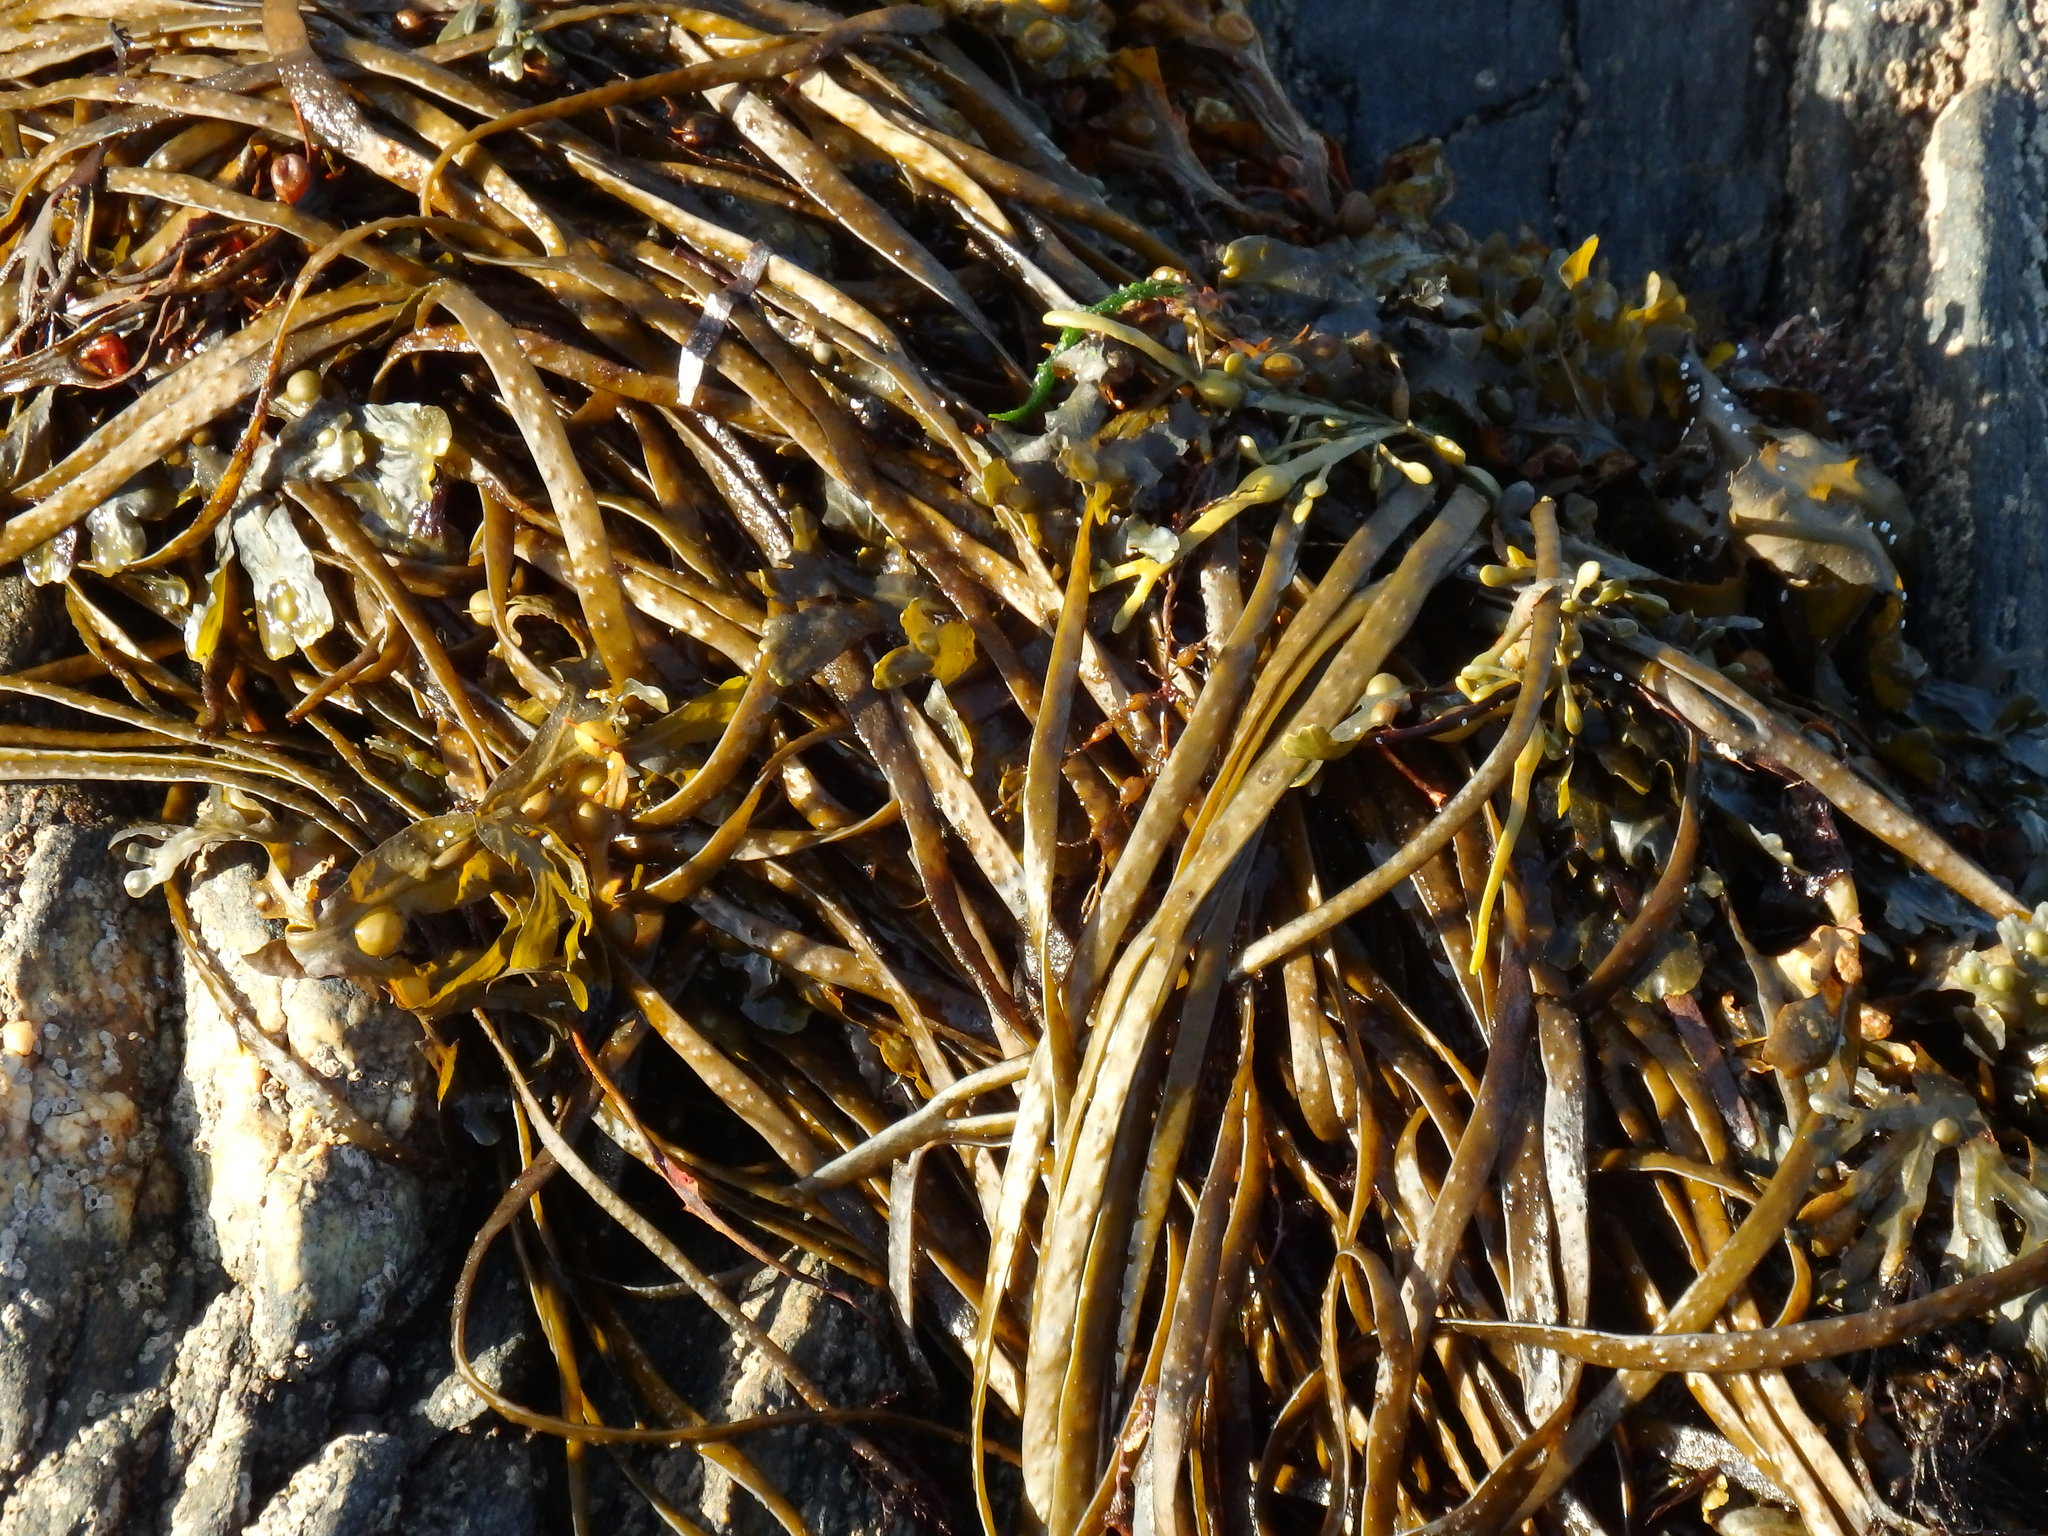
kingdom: Chromista
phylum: Ochrophyta
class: Phaeophyceae
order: Fucales
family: Himanthaliaceae
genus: Himanthalia
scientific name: Himanthalia elongata
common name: Sea-thong
